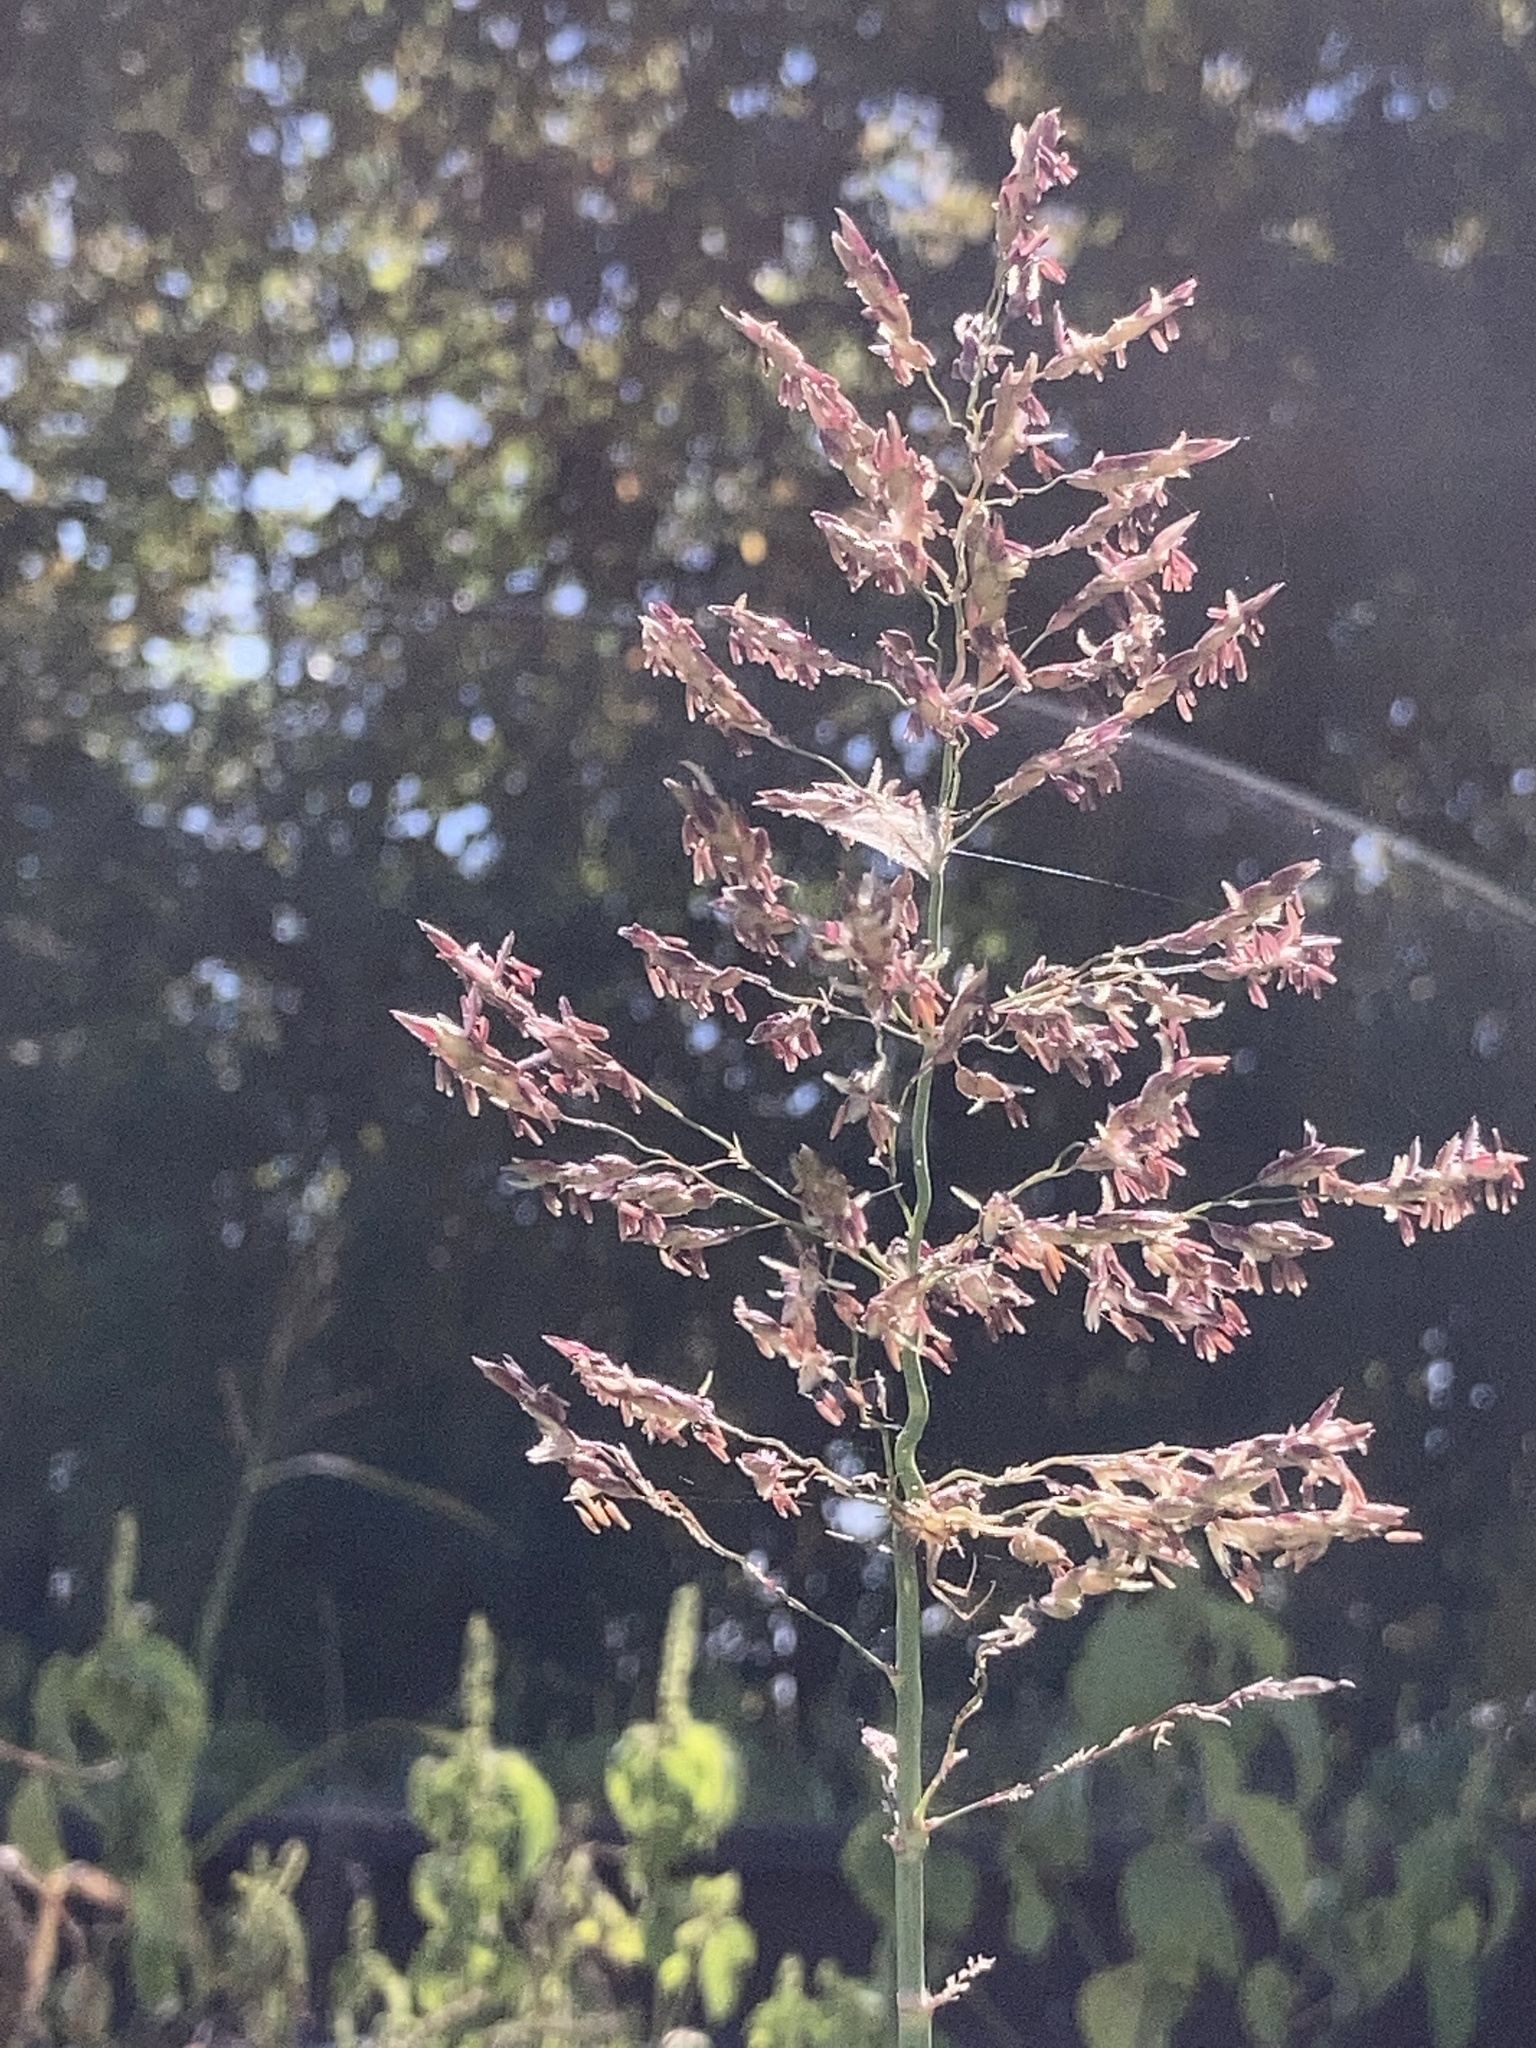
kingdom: Plantae
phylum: Tracheophyta
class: Liliopsida
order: Poales
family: Poaceae
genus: Sorghum
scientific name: Sorghum halepense
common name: Johnson-grass
